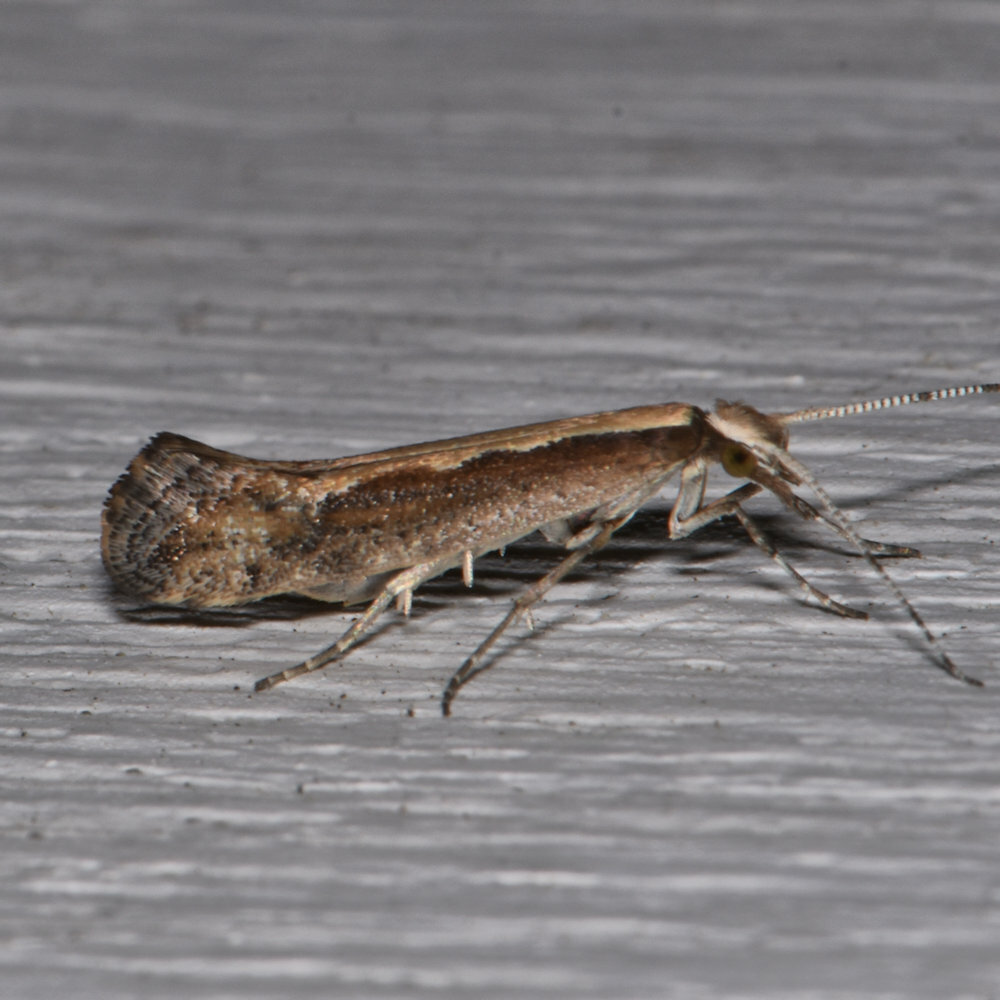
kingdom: Animalia
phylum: Arthropoda
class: Insecta
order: Lepidoptera
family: Plutellidae
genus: Plutella
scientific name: Plutella xylostella
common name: Diamond-back moth
